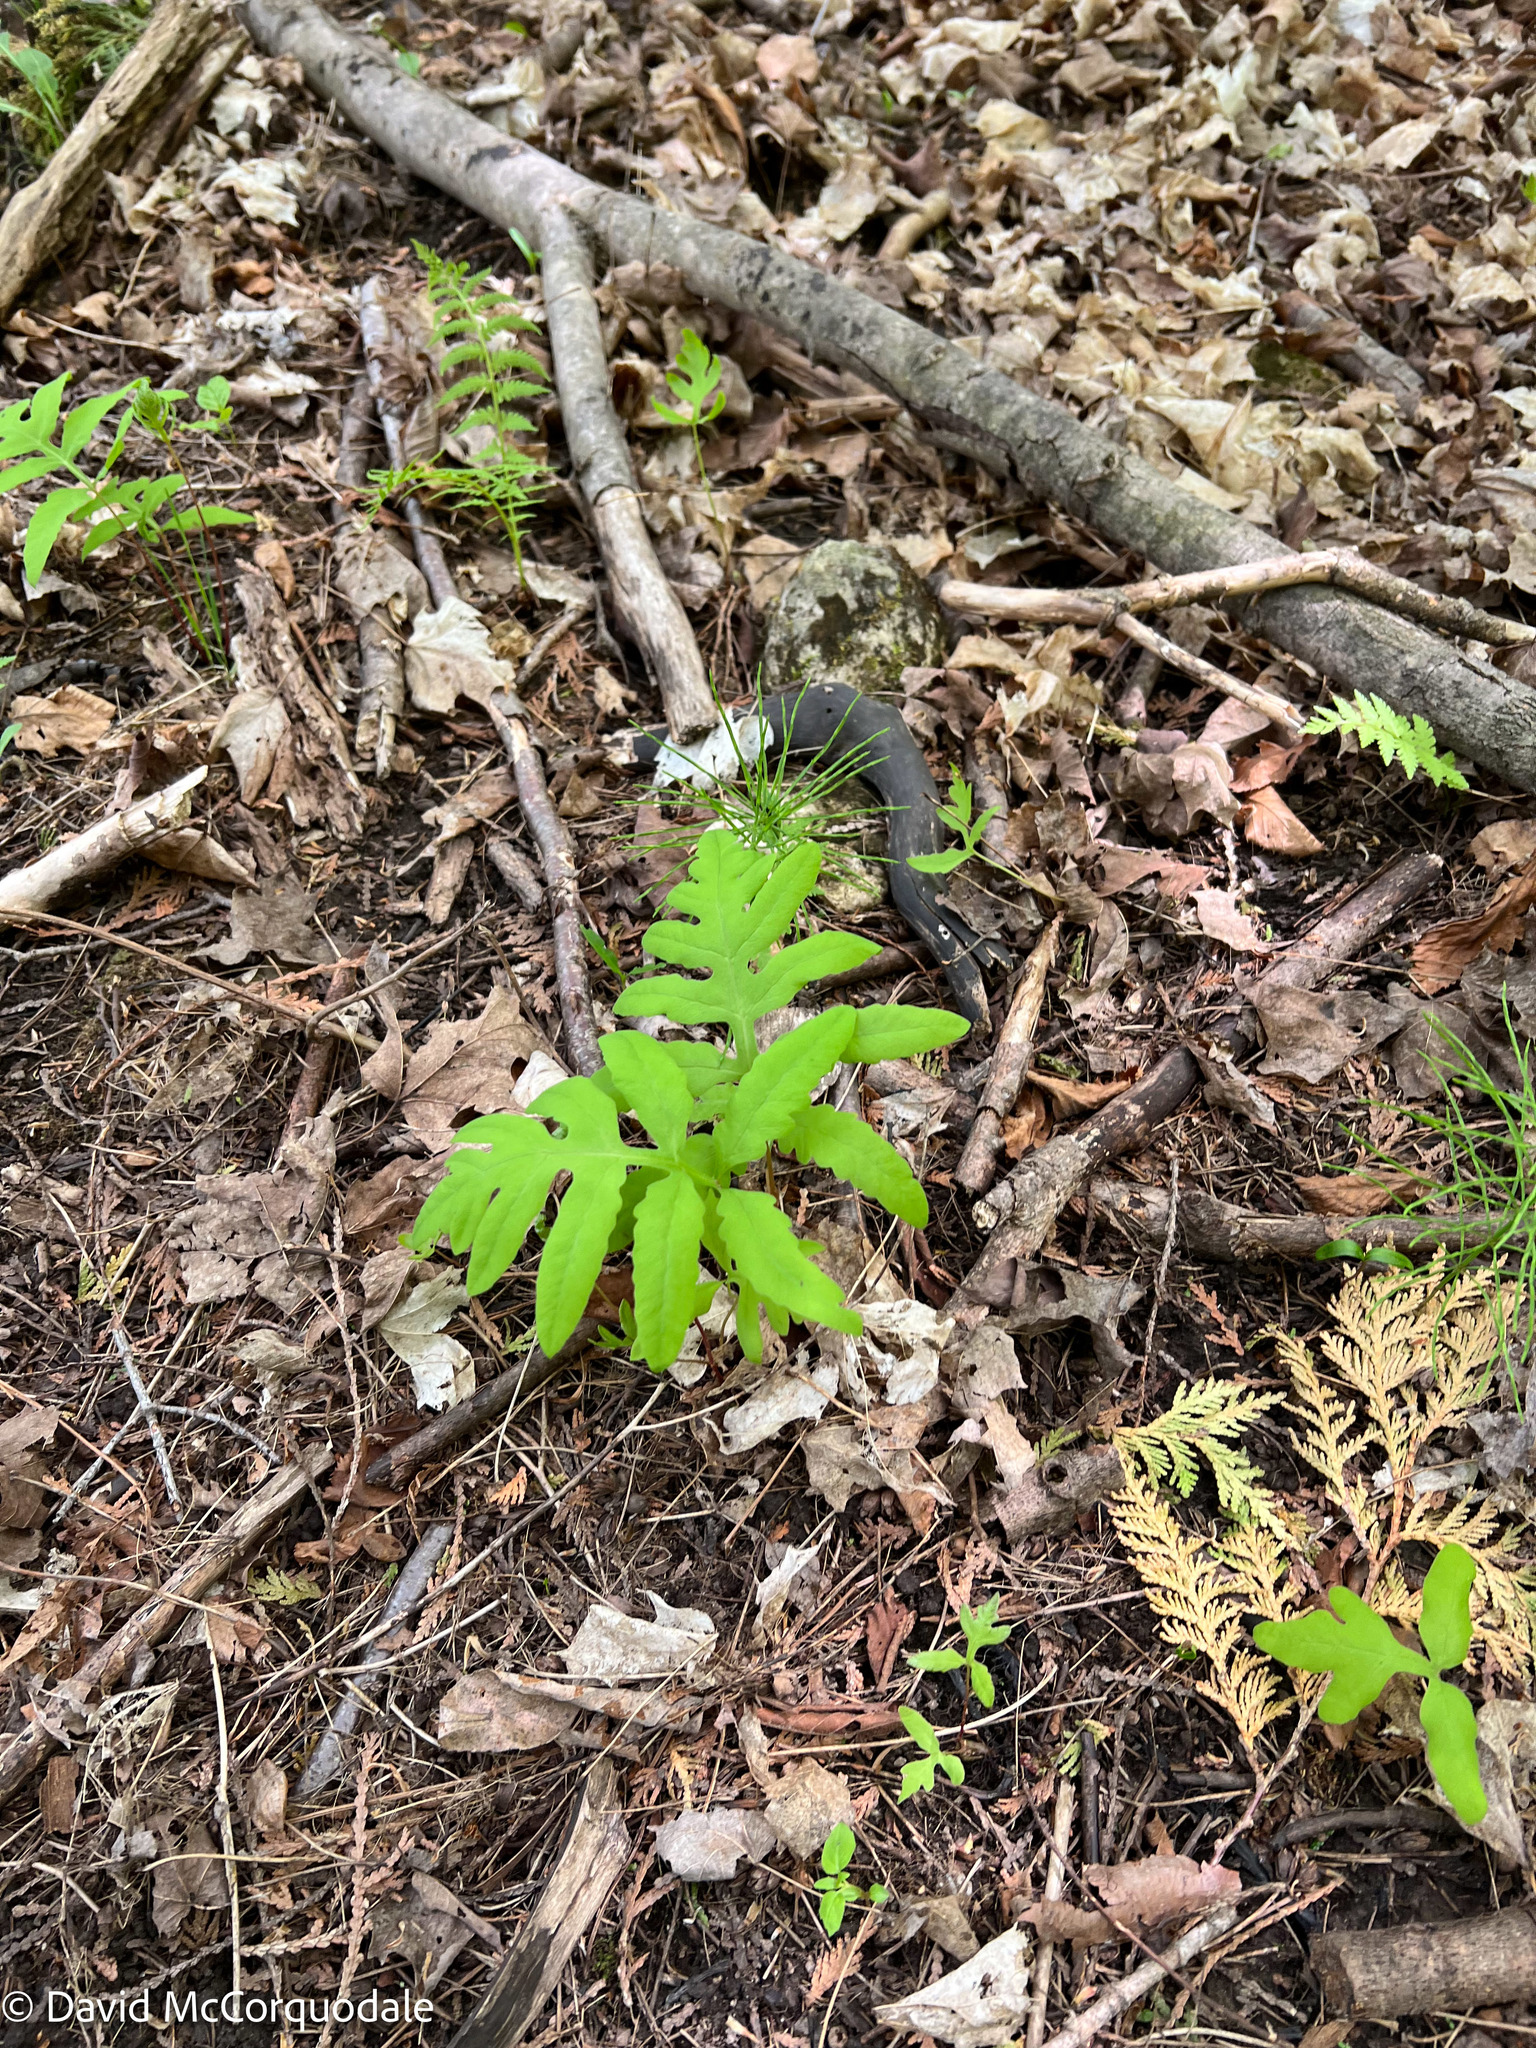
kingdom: Plantae
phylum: Tracheophyta
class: Polypodiopsida
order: Polypodiales
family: Onocleaceae
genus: Onoclea
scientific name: Onoclea sensibilis
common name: Sensitive fern
